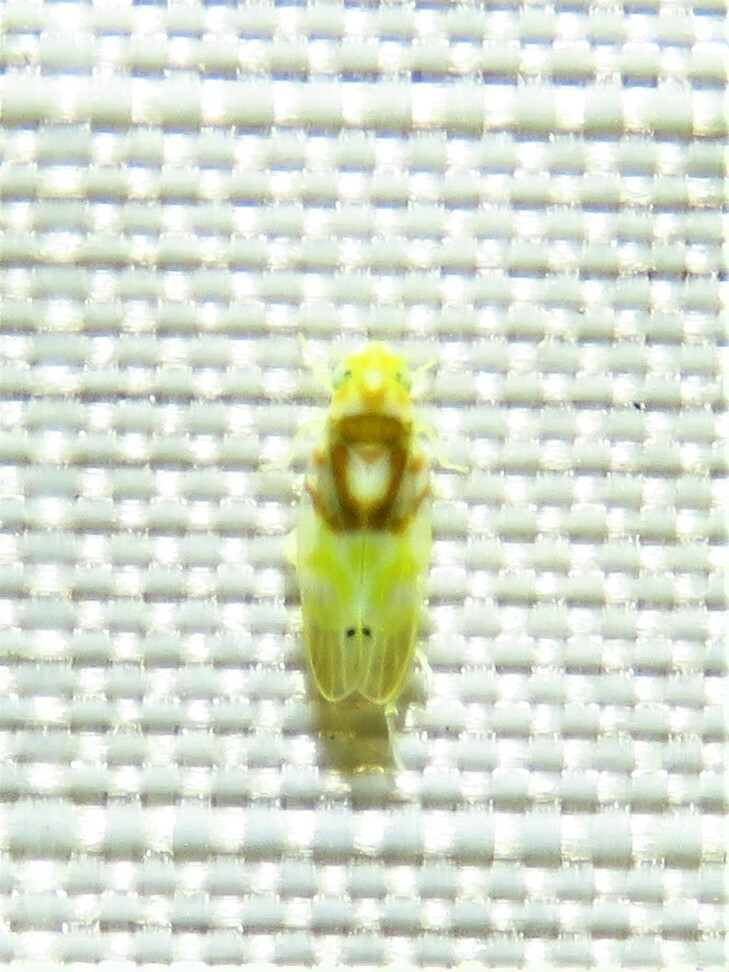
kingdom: Animalia
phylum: Arthropoda
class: Insecta
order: Hemiptera
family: Cicadellidae
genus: Eratoneura
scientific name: Eratoneura affinis
